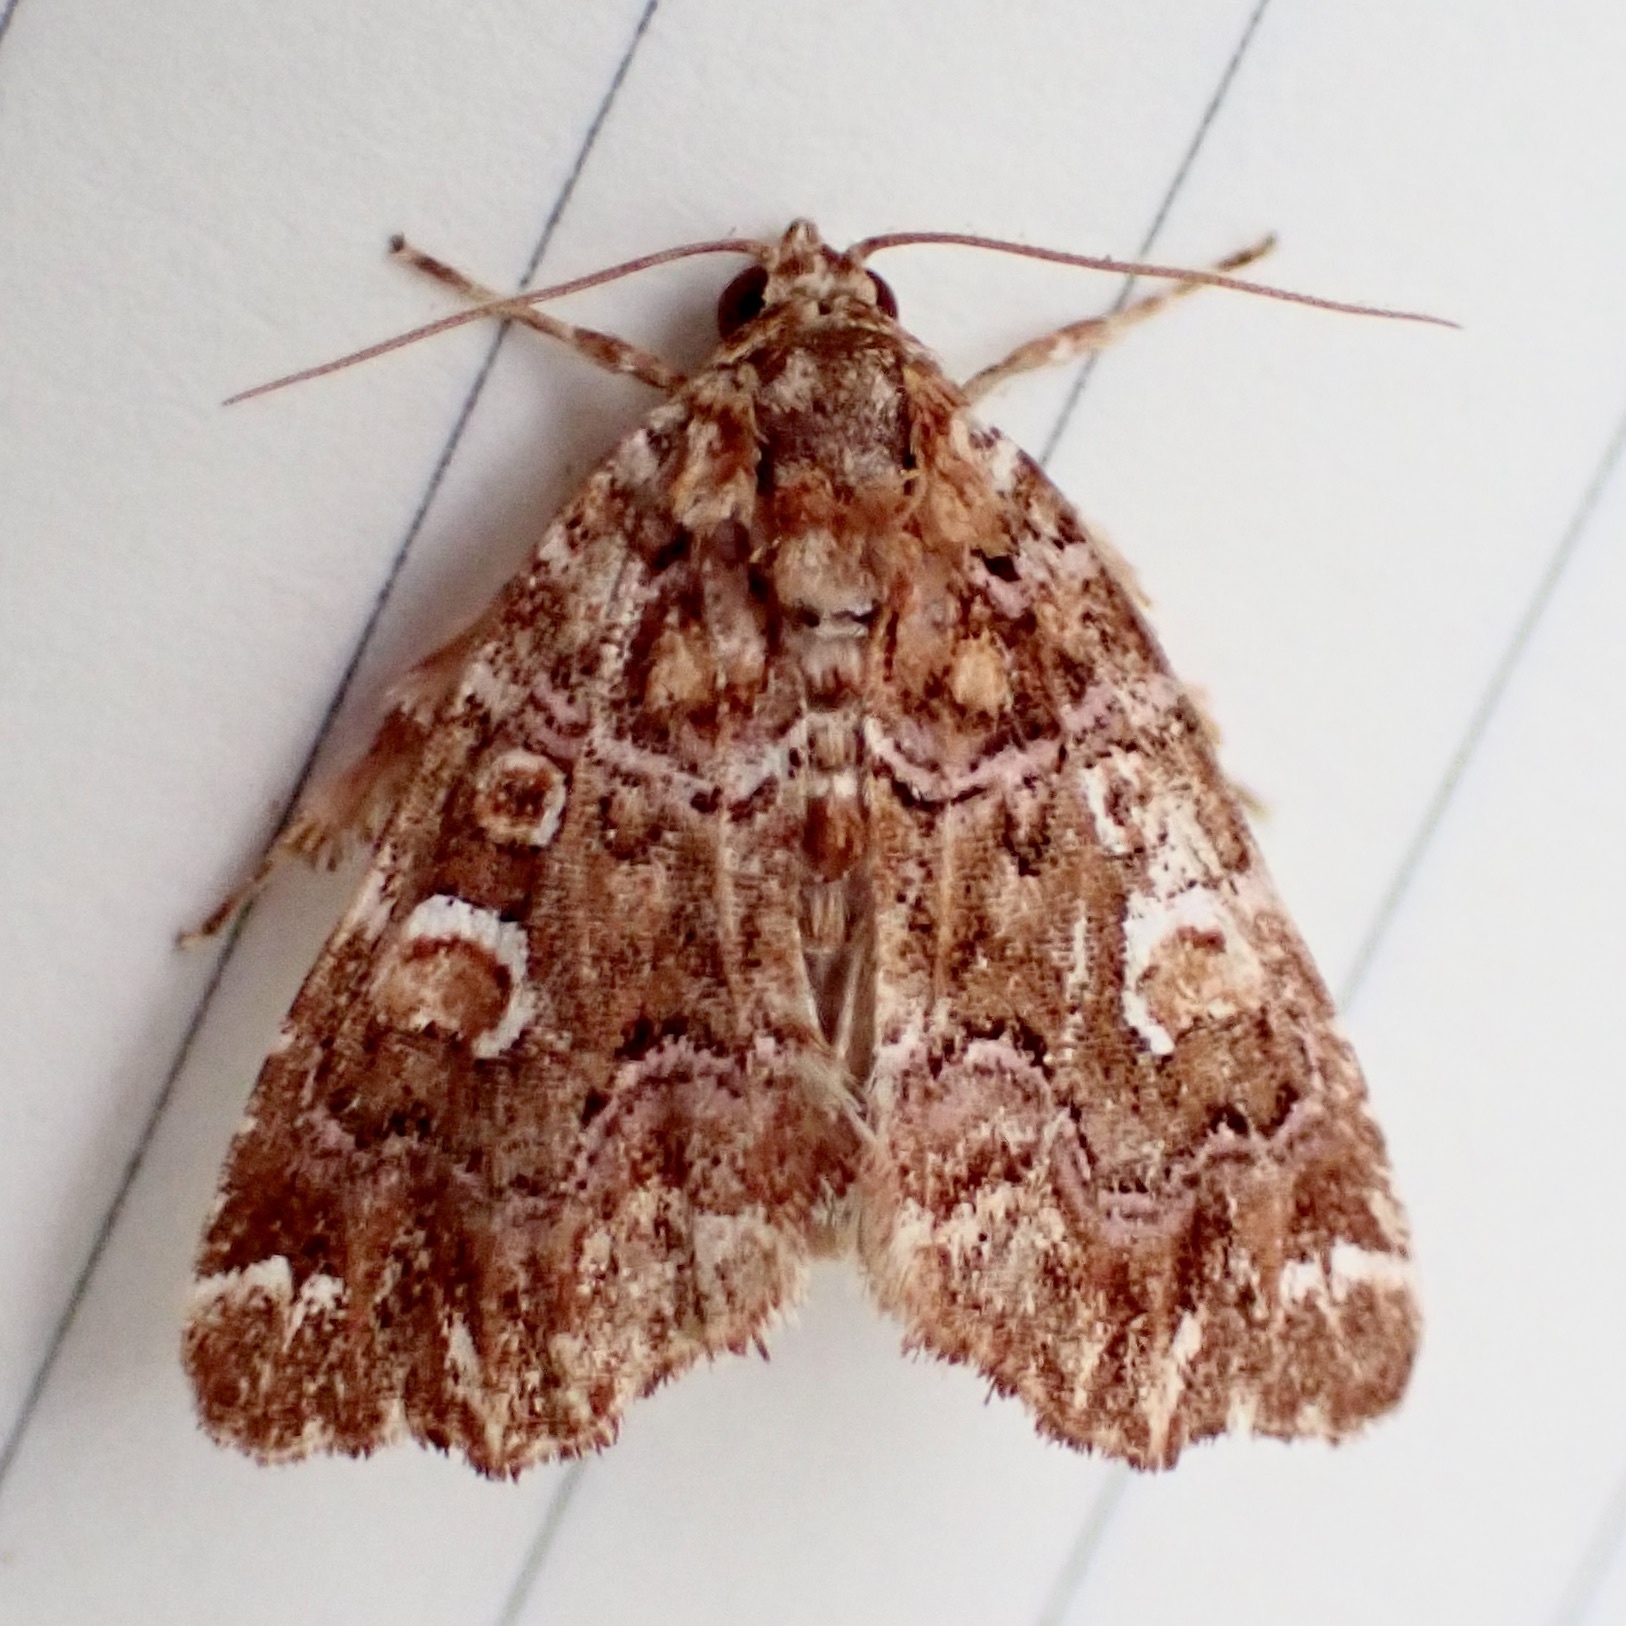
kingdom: Animalia
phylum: Arthropoda
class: Insecta
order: Lepidoptera
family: Noctuidae
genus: Callopistria
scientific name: Callopistria mollissima
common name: Pink-shaded fern moth
